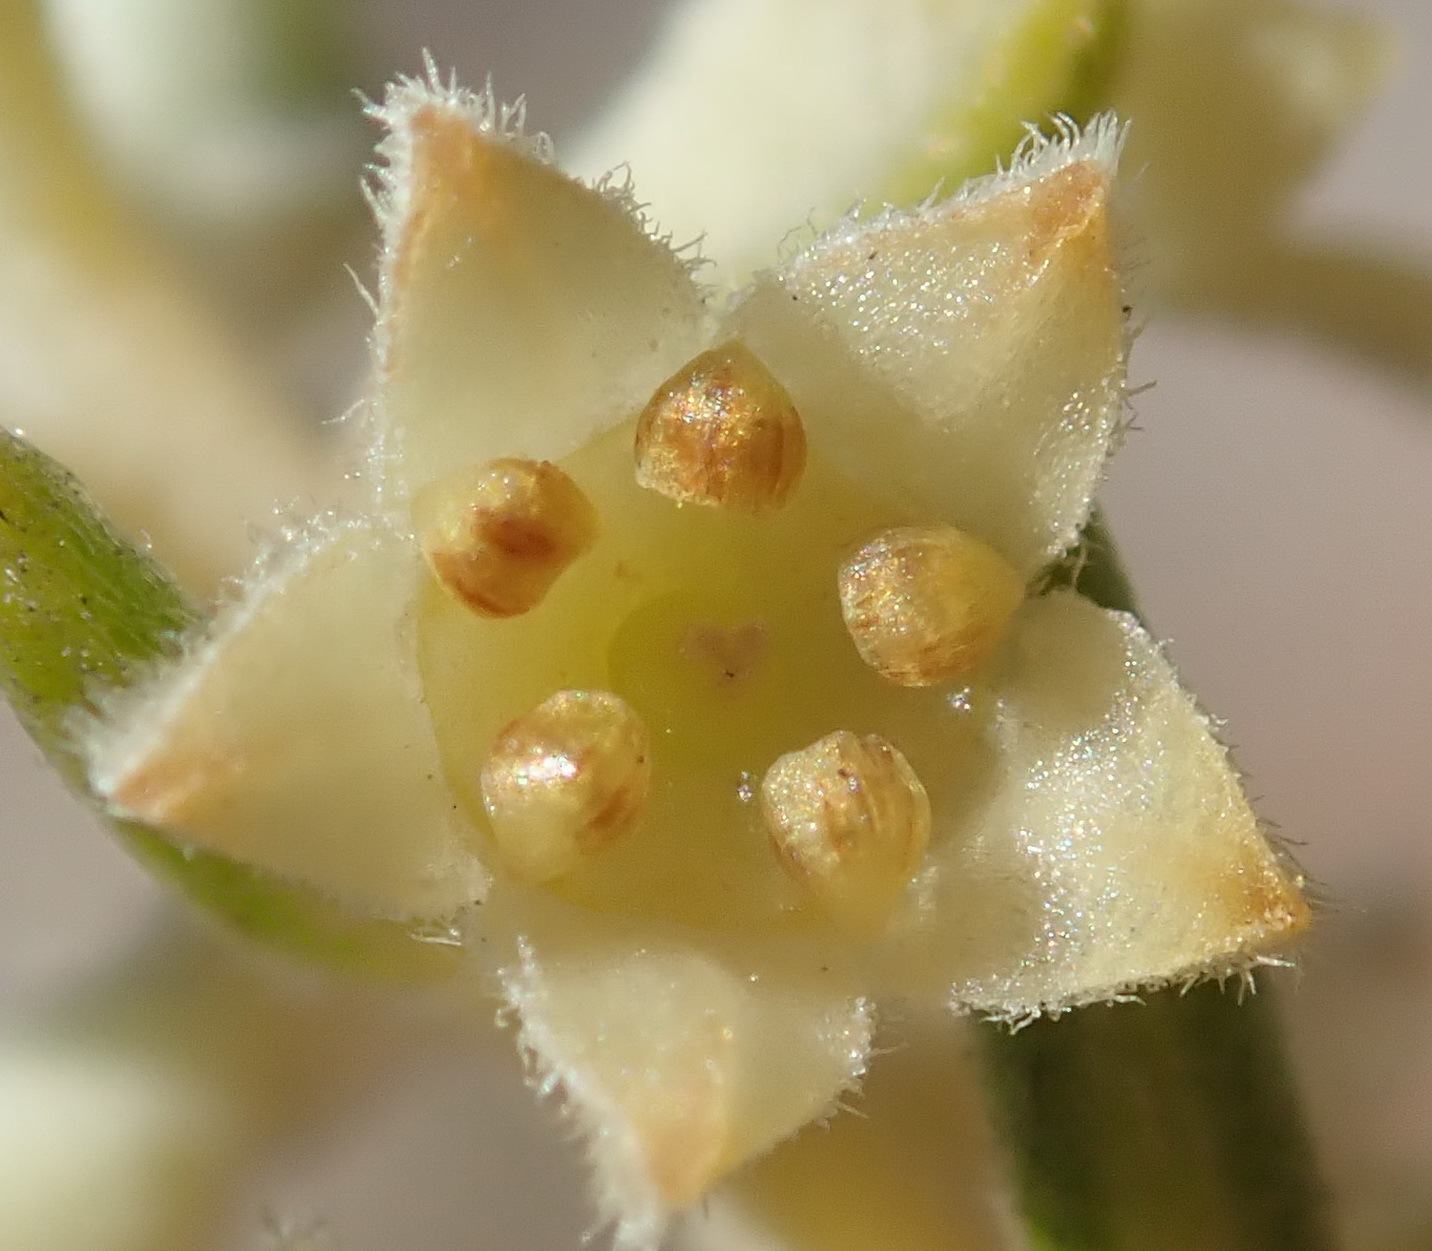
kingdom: Plantae
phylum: Tracheophyta
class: Magnoliopsida
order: Rosales
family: Rhamnaceae
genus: Phylica
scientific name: Phylica axillaris
